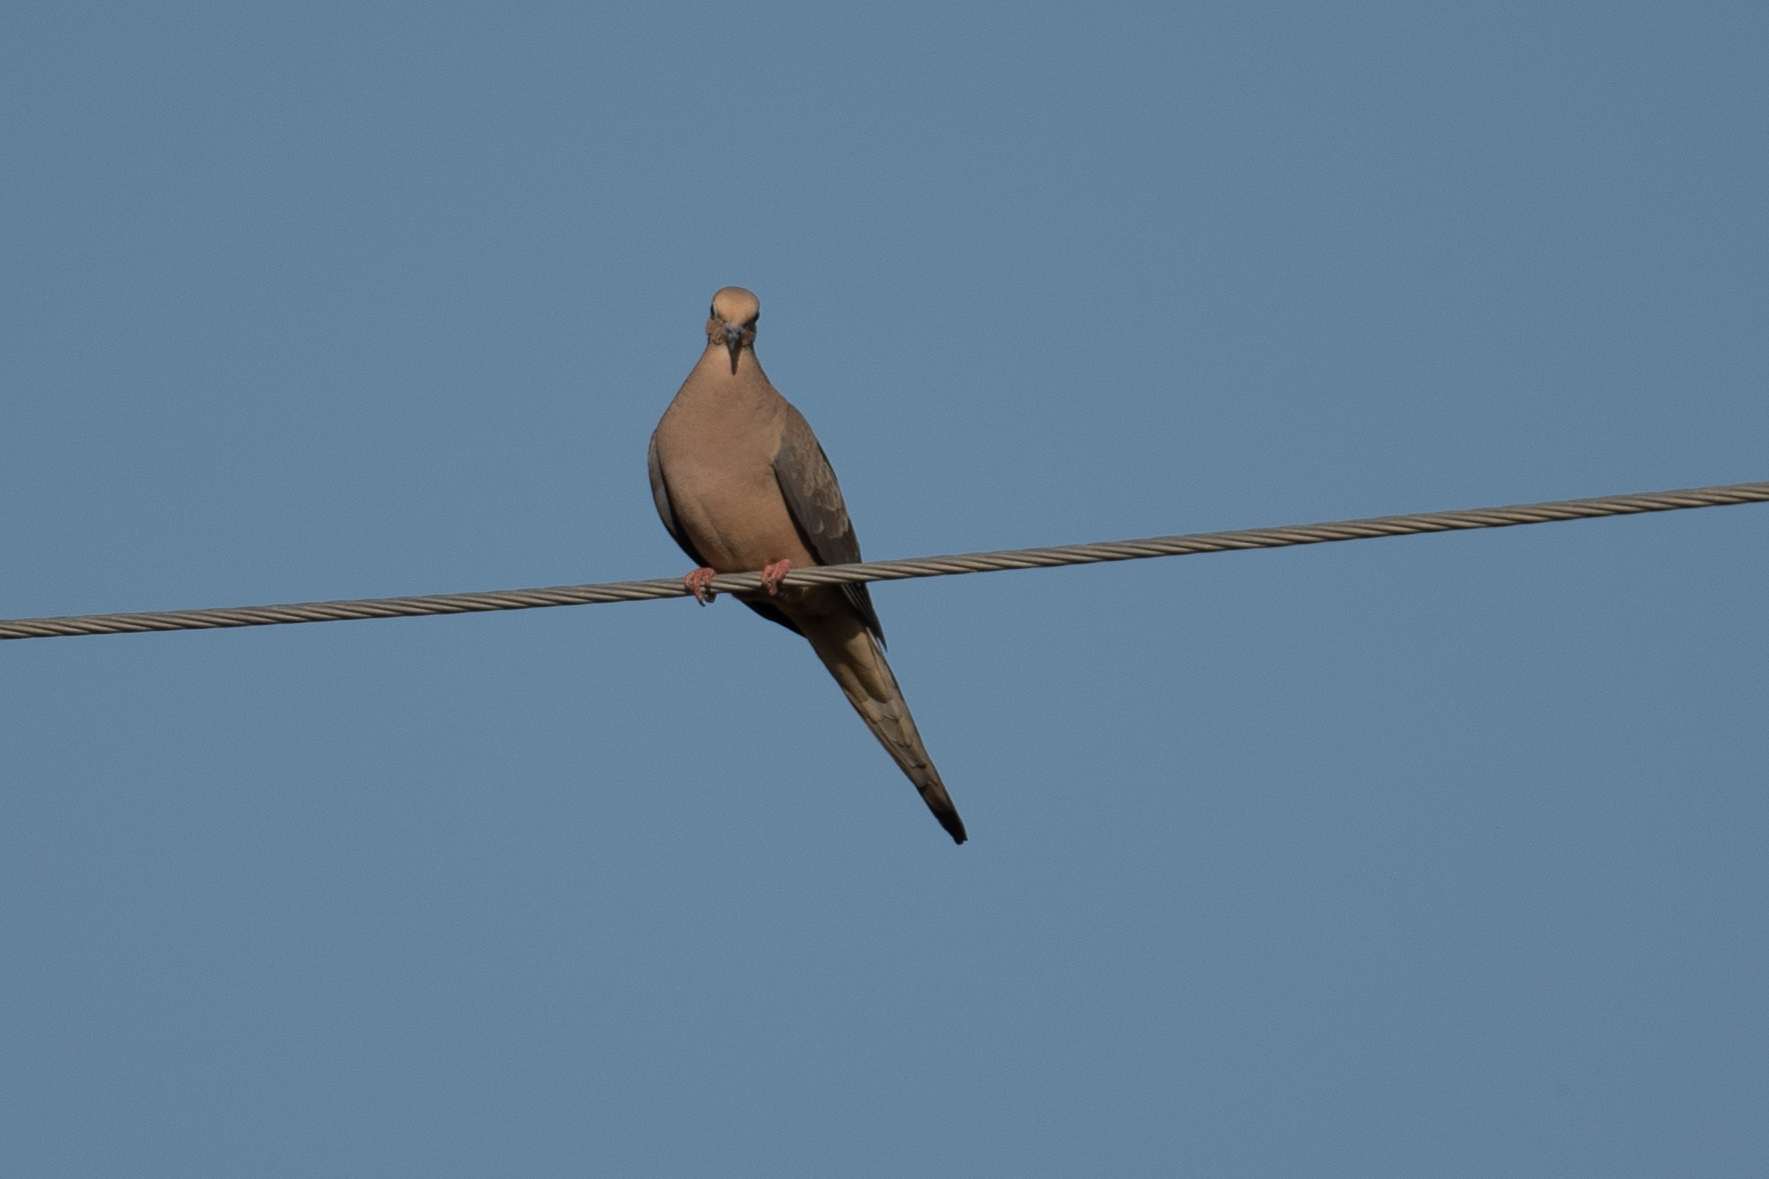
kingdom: Animalia
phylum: Chordata
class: Aves
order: Columbiformes
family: Columbidae
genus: Zenaida
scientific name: Zenaida macroura
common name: Mourning dove
